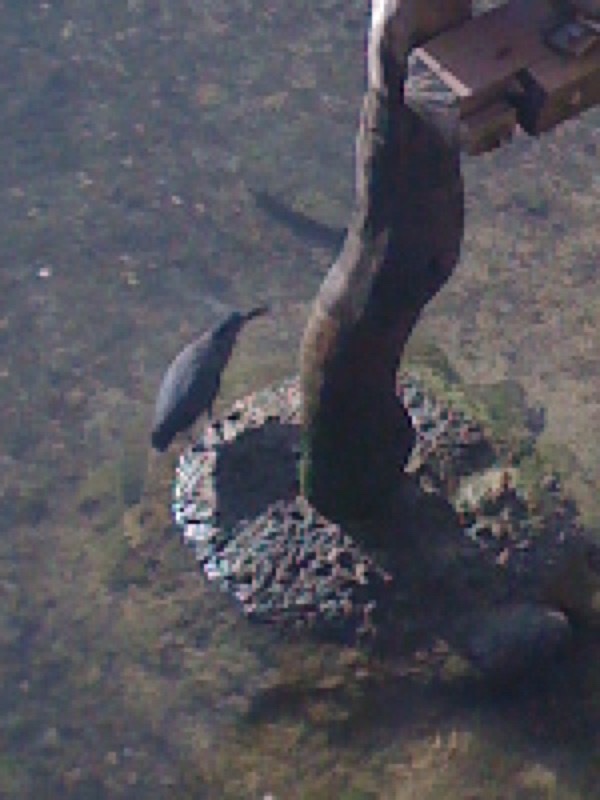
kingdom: Animalia
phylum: Chordata
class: Aves
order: Pelecaniformes
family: Ardeidae
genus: Butorides
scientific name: Butorides striata
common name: Striated heron
